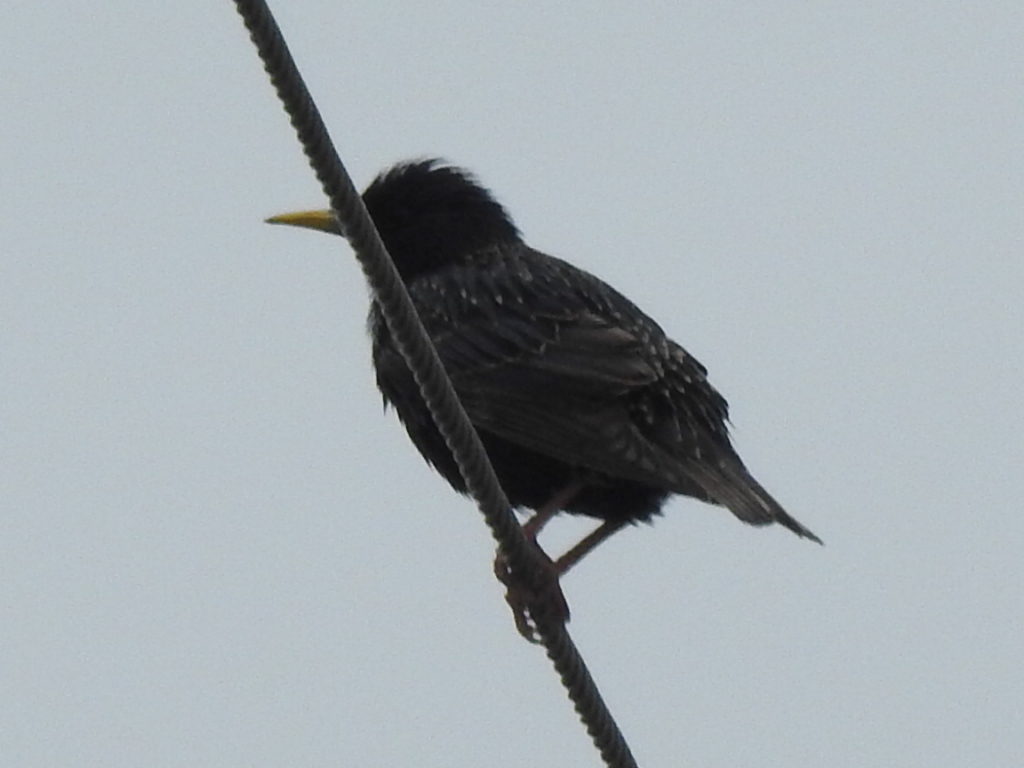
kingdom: Animalia
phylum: Chordata
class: Aves
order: Passeriformes
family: Sturnidae
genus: Sturnus
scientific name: Sturnus vulgaris
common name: Common starling
